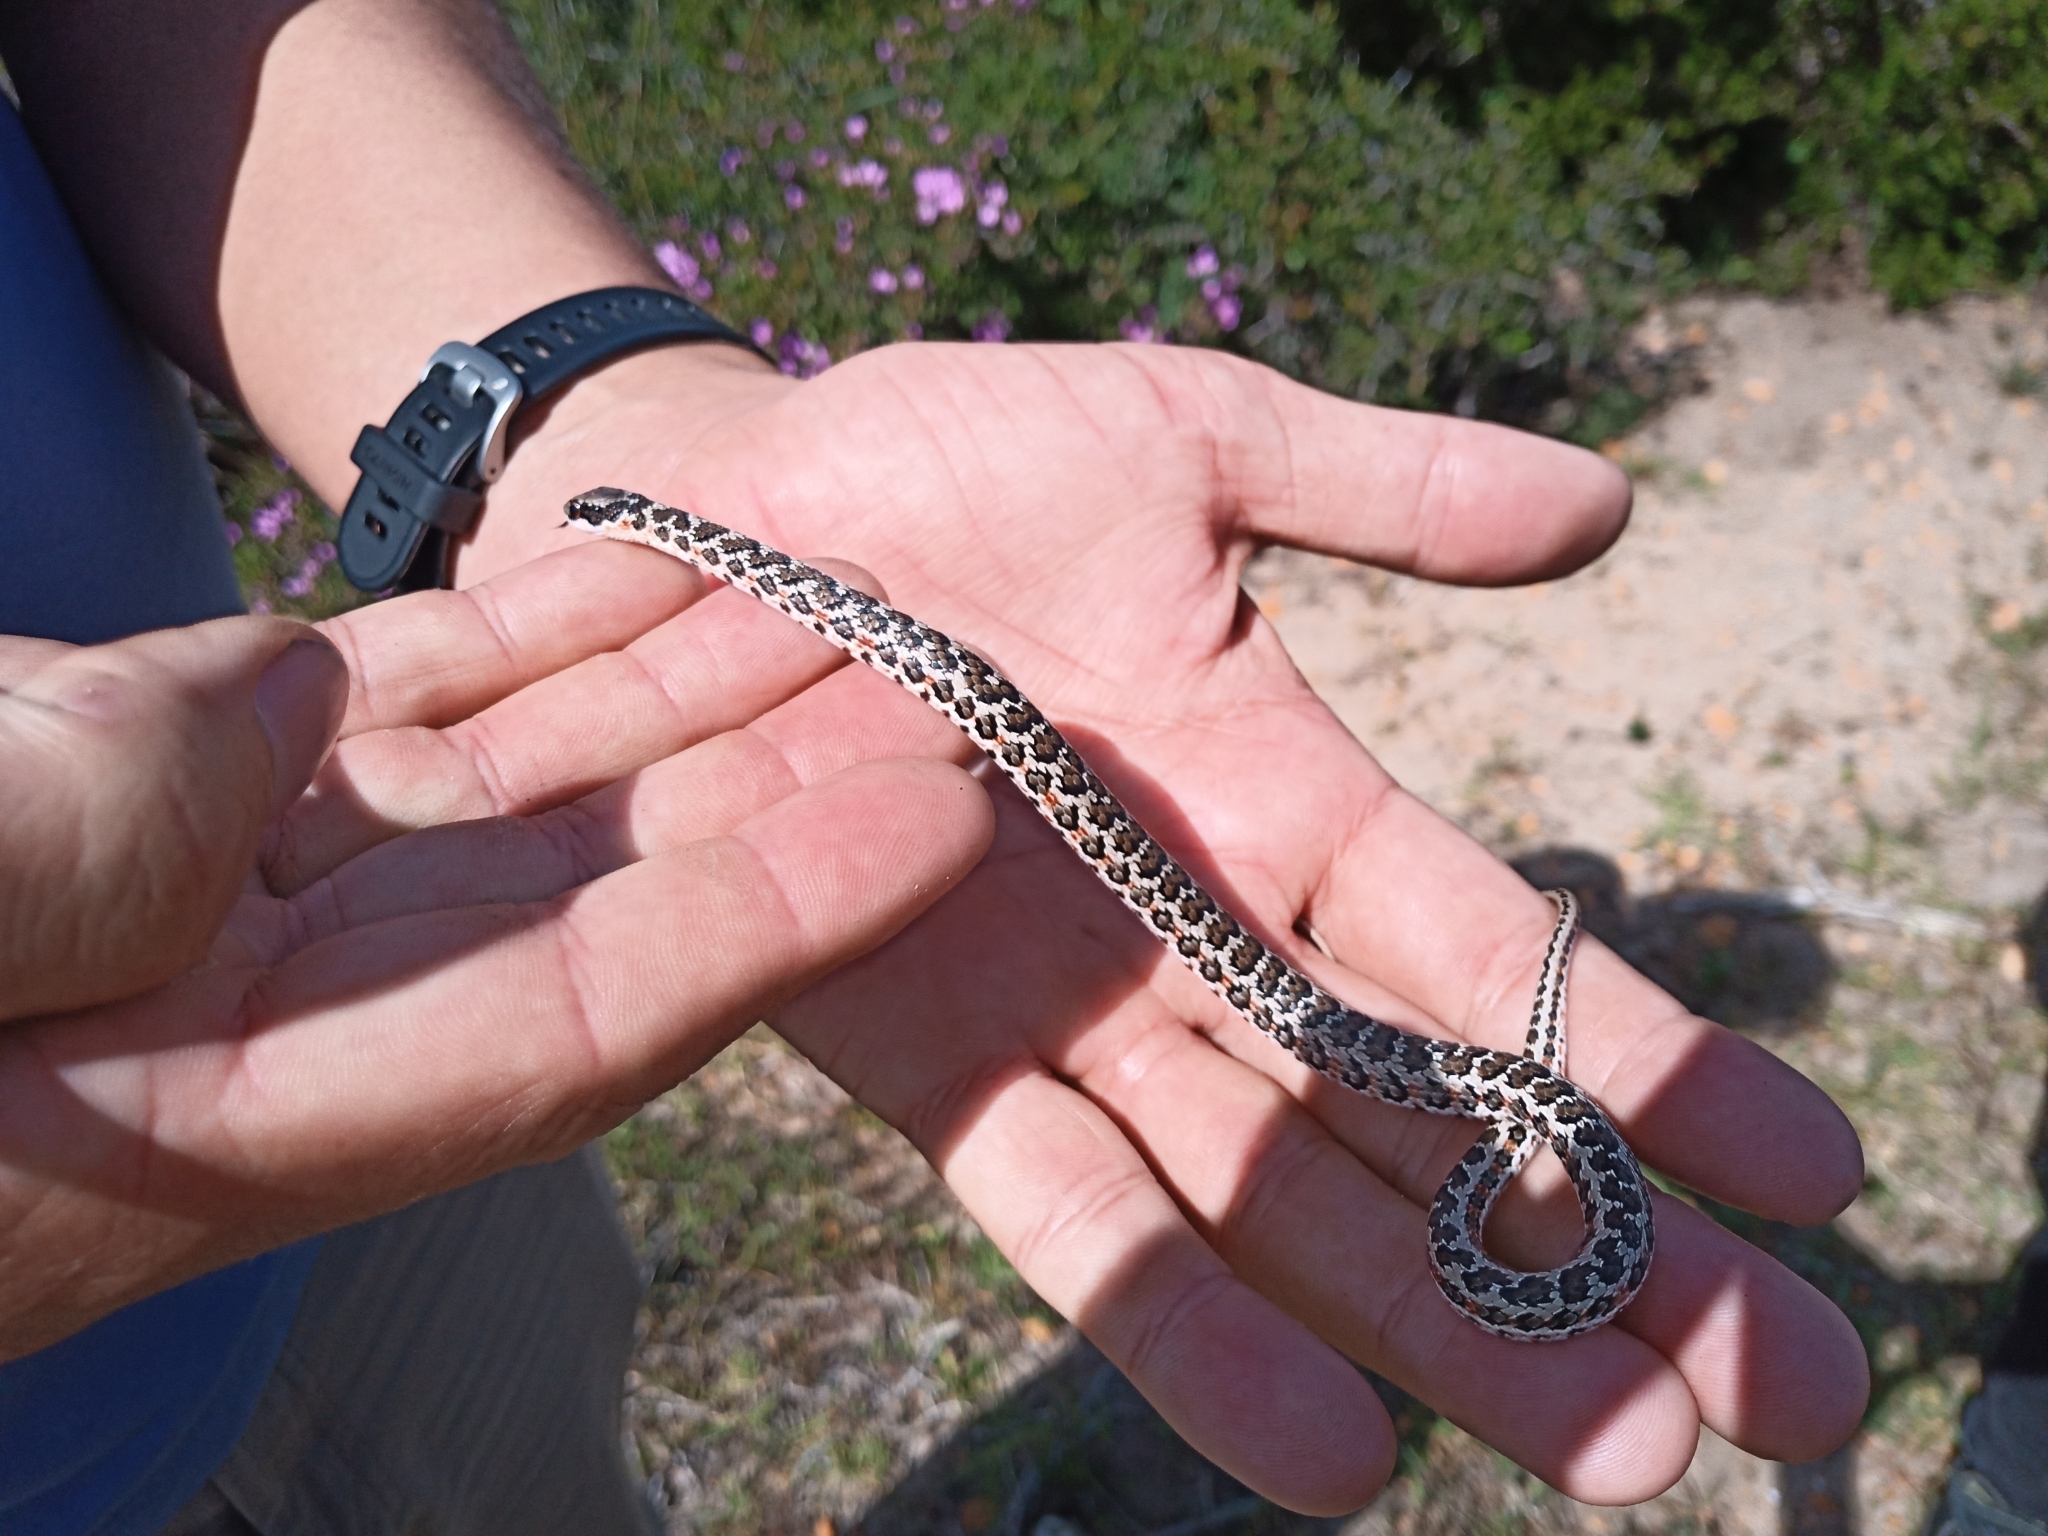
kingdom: Animalia
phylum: Chordata
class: Squamata
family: Psammophiidae
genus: Psammophylax
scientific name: Psammophylax rhombeatus
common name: Rhombic skaapsteker
